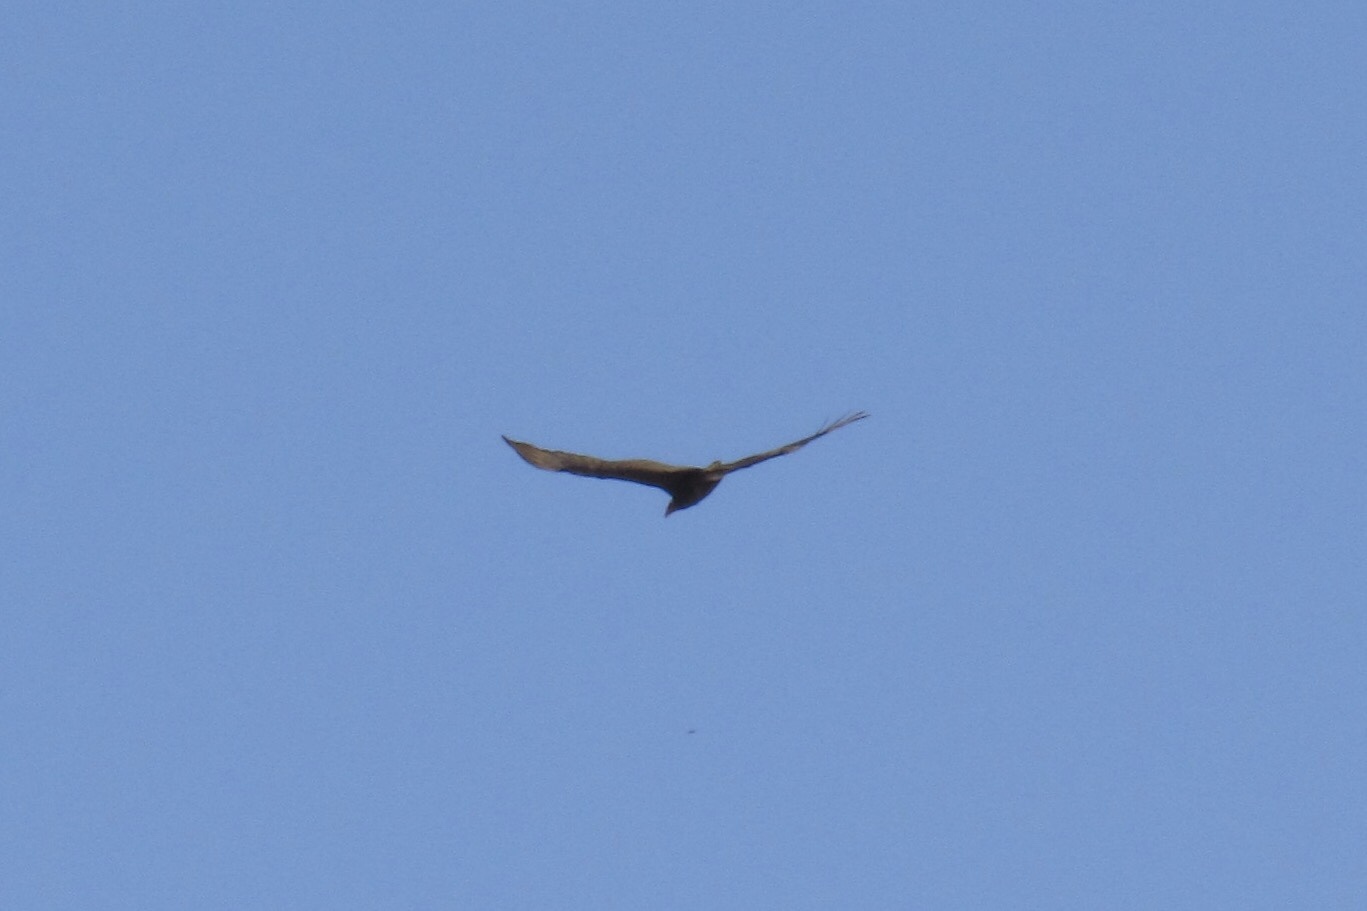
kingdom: Animalia
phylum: Chordata
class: Aves
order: Accipitriformes
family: Cathartidae
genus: Cathartes
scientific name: Cathartes aura
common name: Turkey vulture
